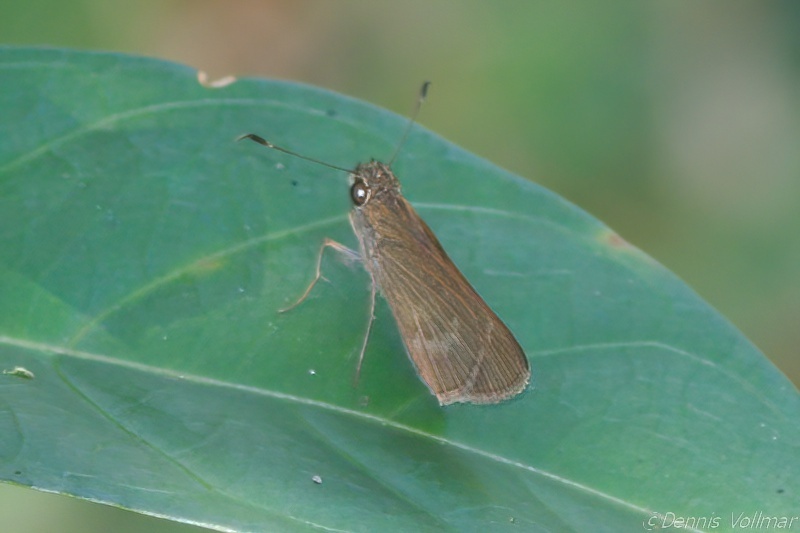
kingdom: Animalia
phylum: Arthropoda
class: Insecta
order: Lepidoptera
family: Hesperiidae
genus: Cymaenes
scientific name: Cymaenes tripunctus
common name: Dingy dotted skipper
